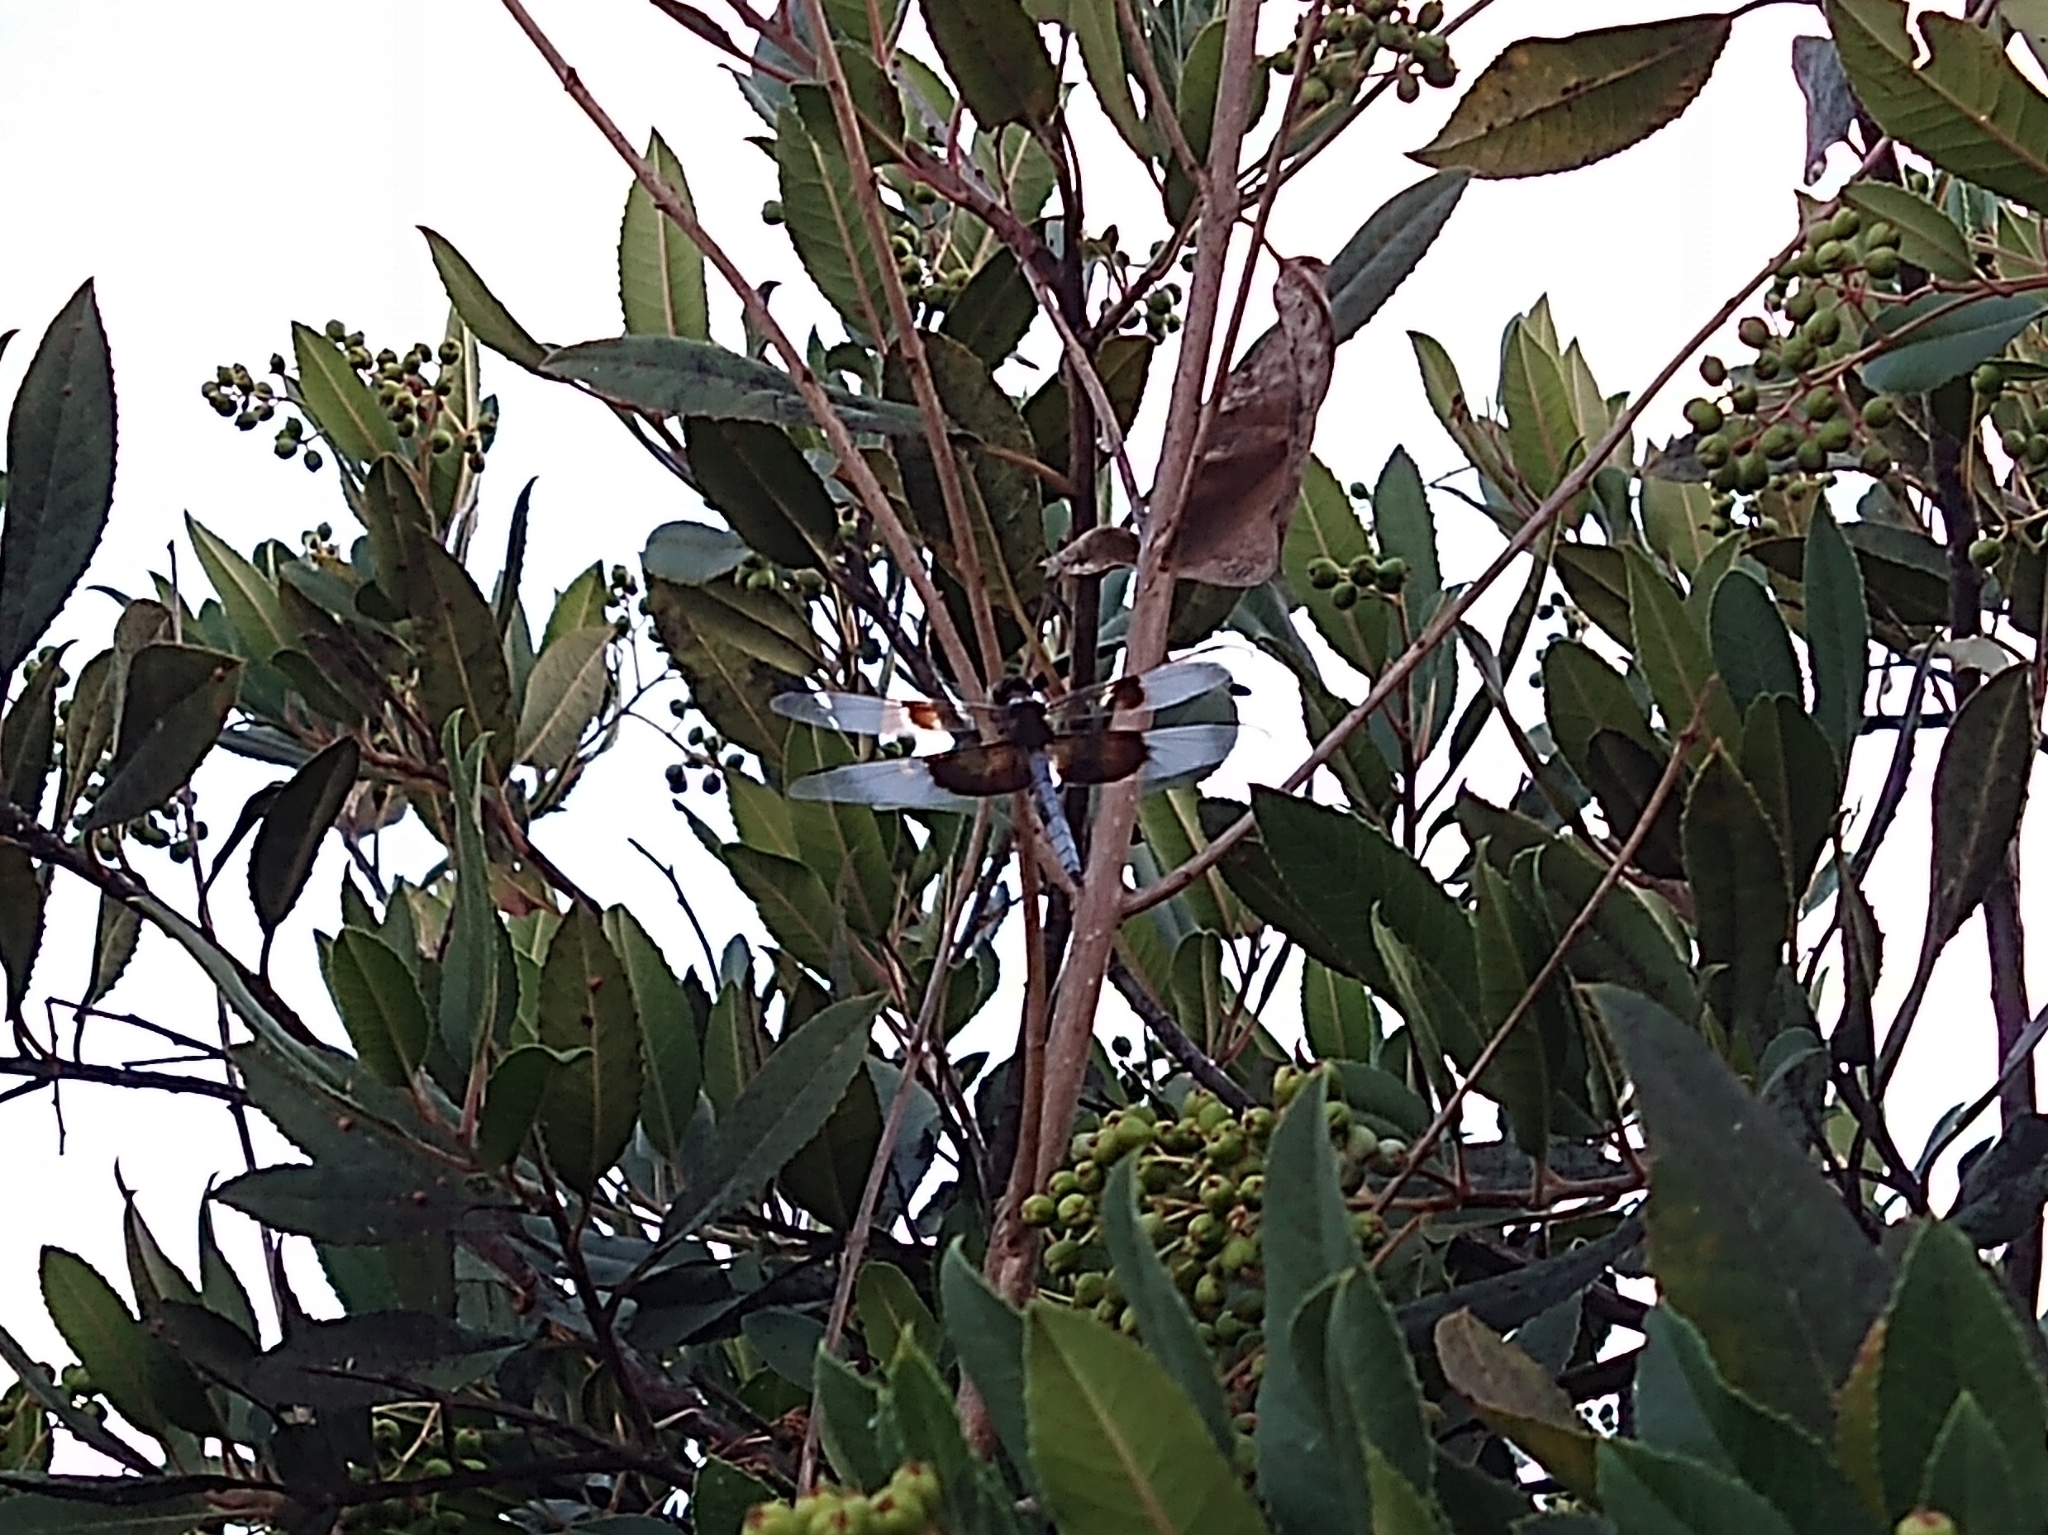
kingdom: Animalia
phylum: Arthropoda
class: Insecta
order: Odonata
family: Libellulidae
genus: Libellula
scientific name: Libellula luctuosa
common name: Widow skimmer
